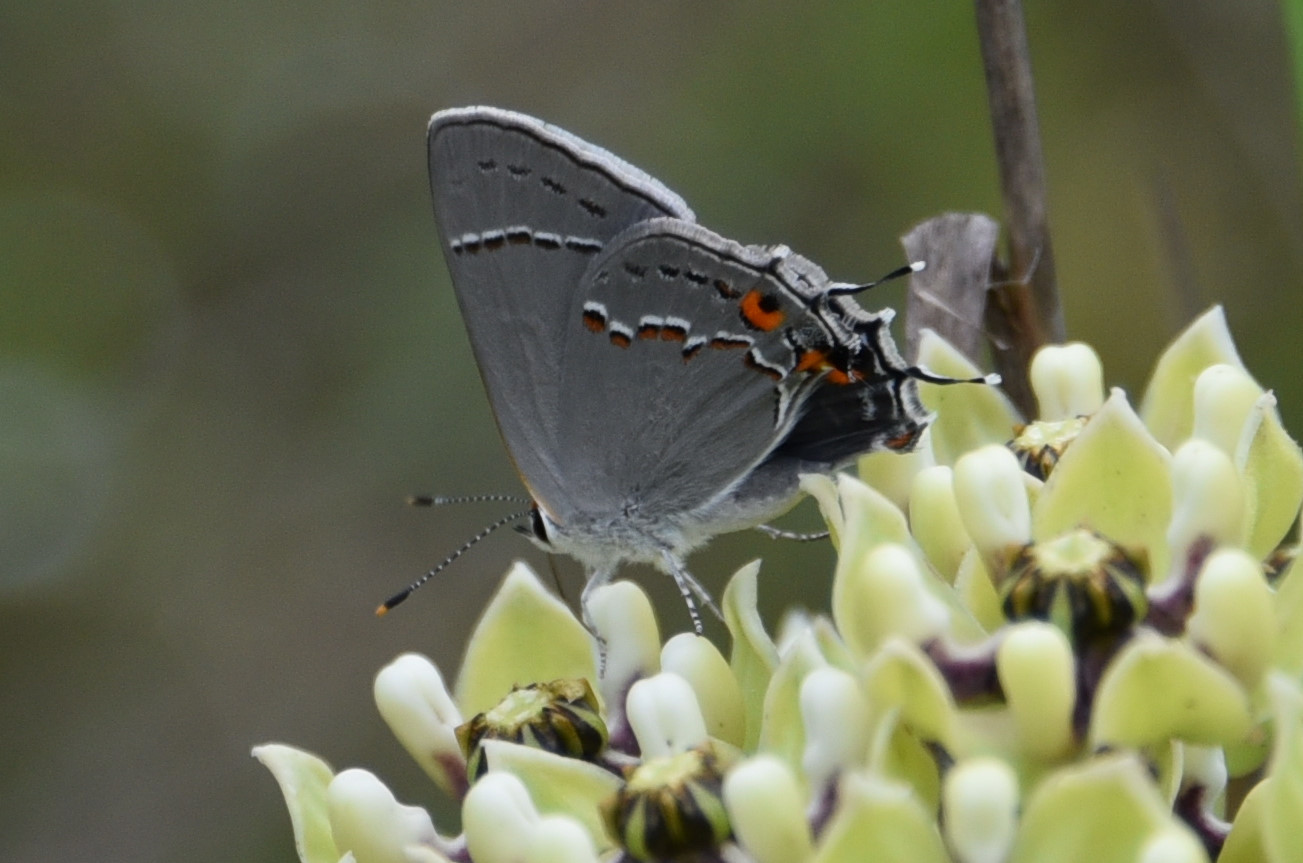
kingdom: Animalia
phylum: Arthropoda
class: Insecta
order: Lepidoptera
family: Lycaenidae
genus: Strymon
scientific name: Strymon melinus
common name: Gray hairstreak
